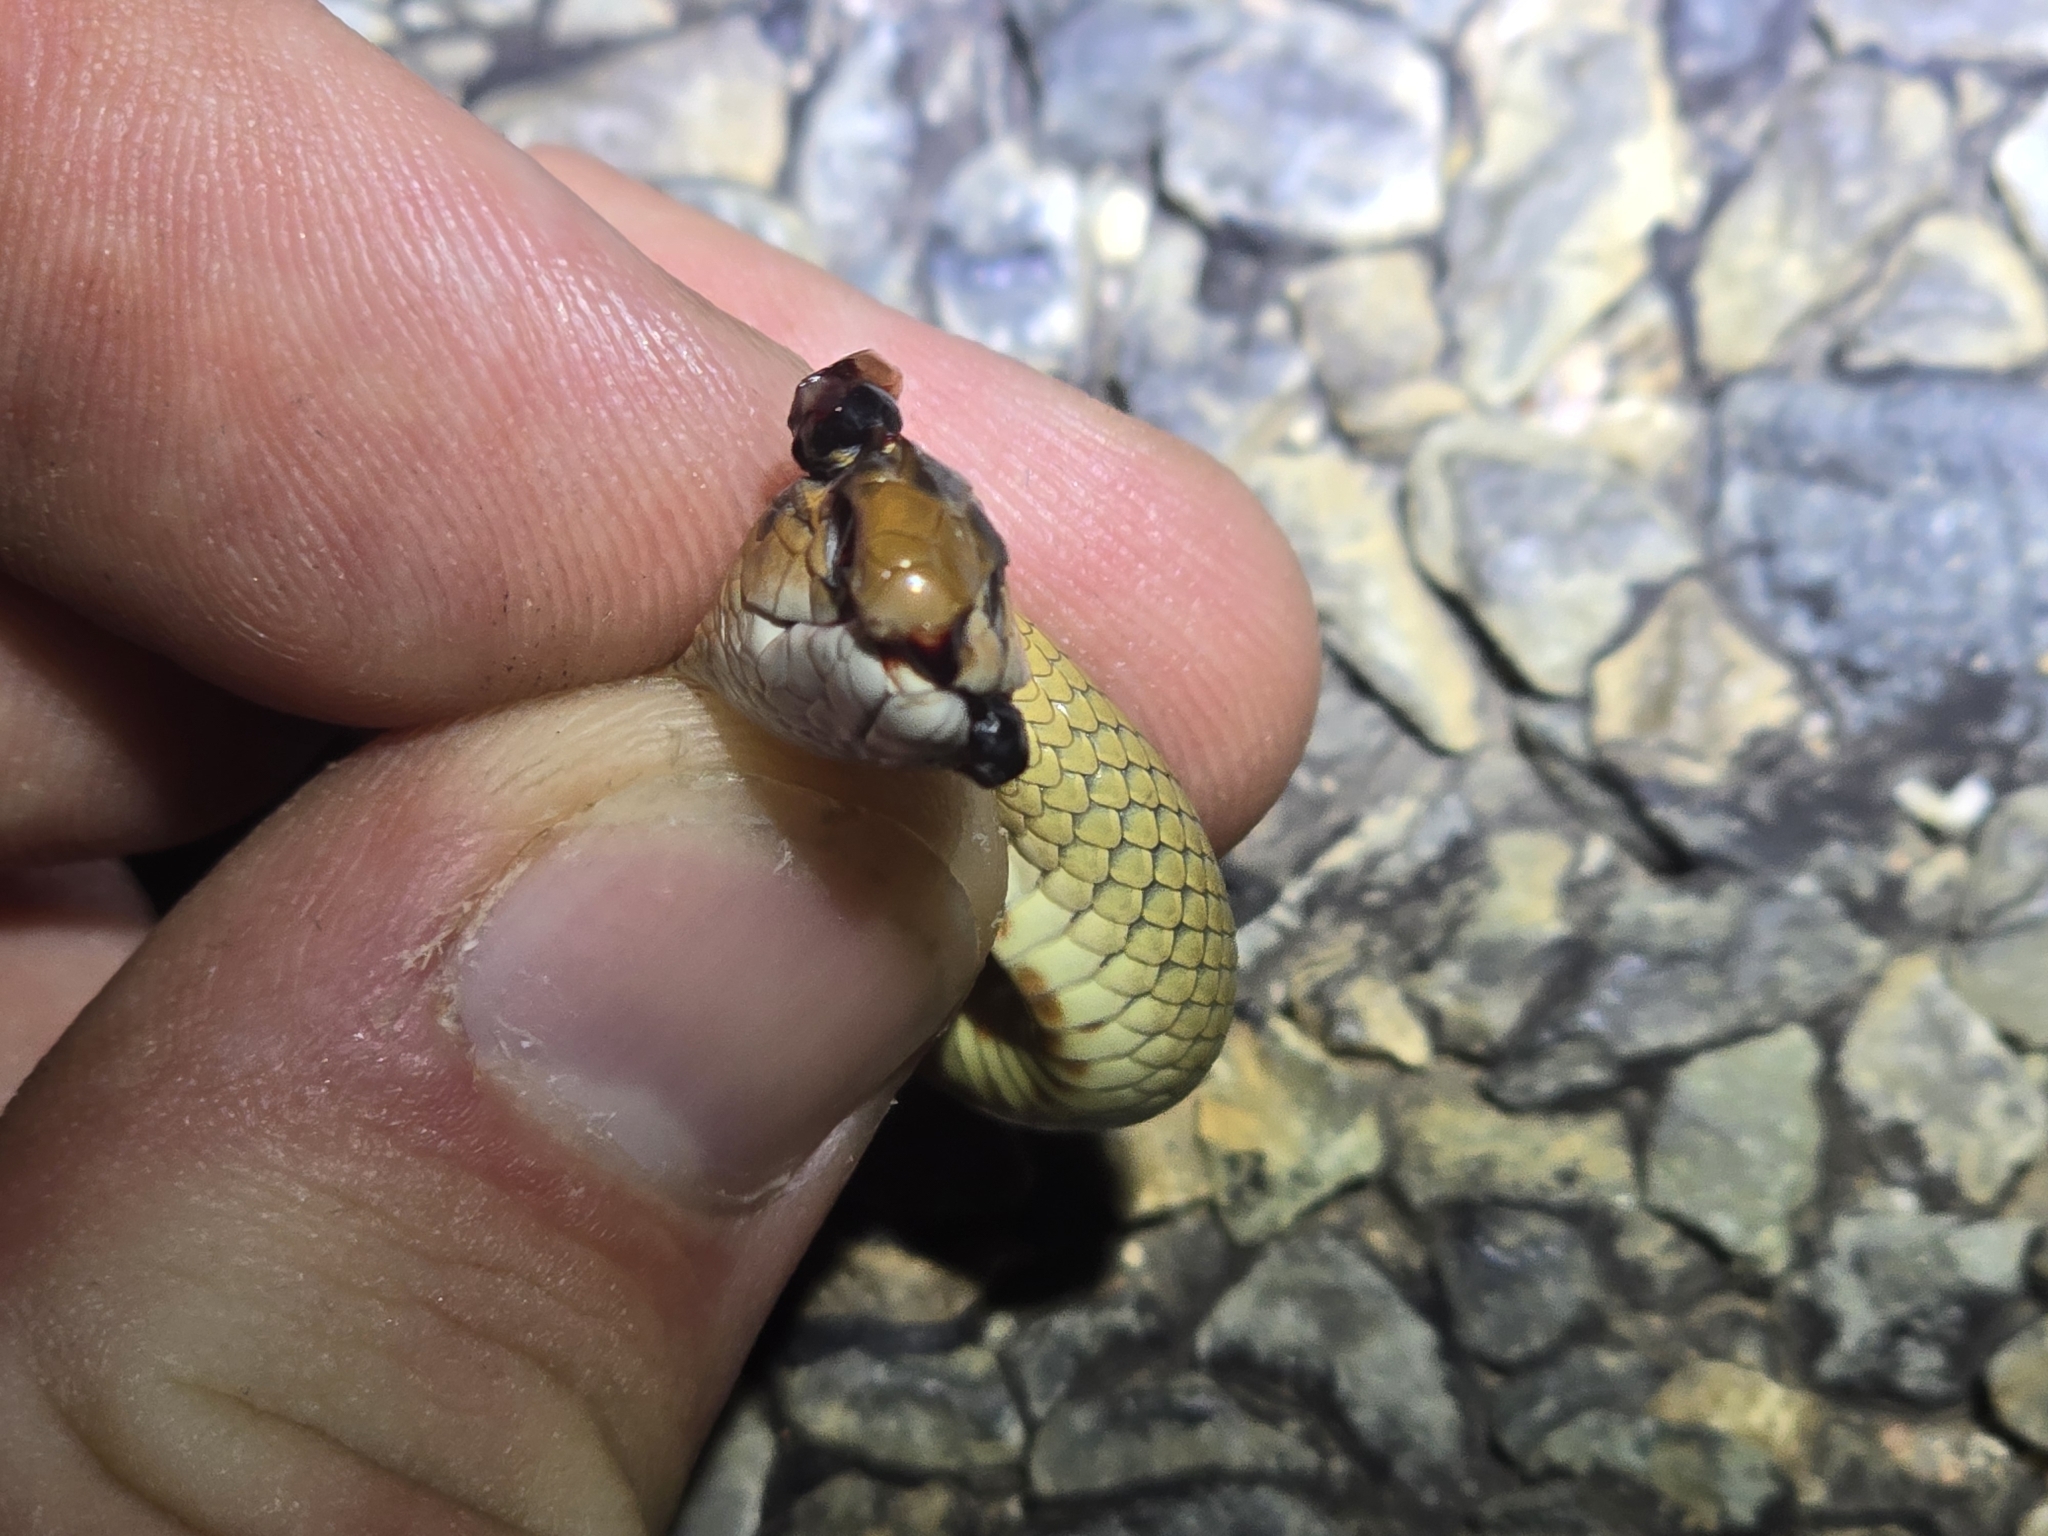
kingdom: Animalia
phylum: Chordata
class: Squamata
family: Elapidae
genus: Pseudonaja
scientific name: Pseudonaja textilis
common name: Eastern brown snake
